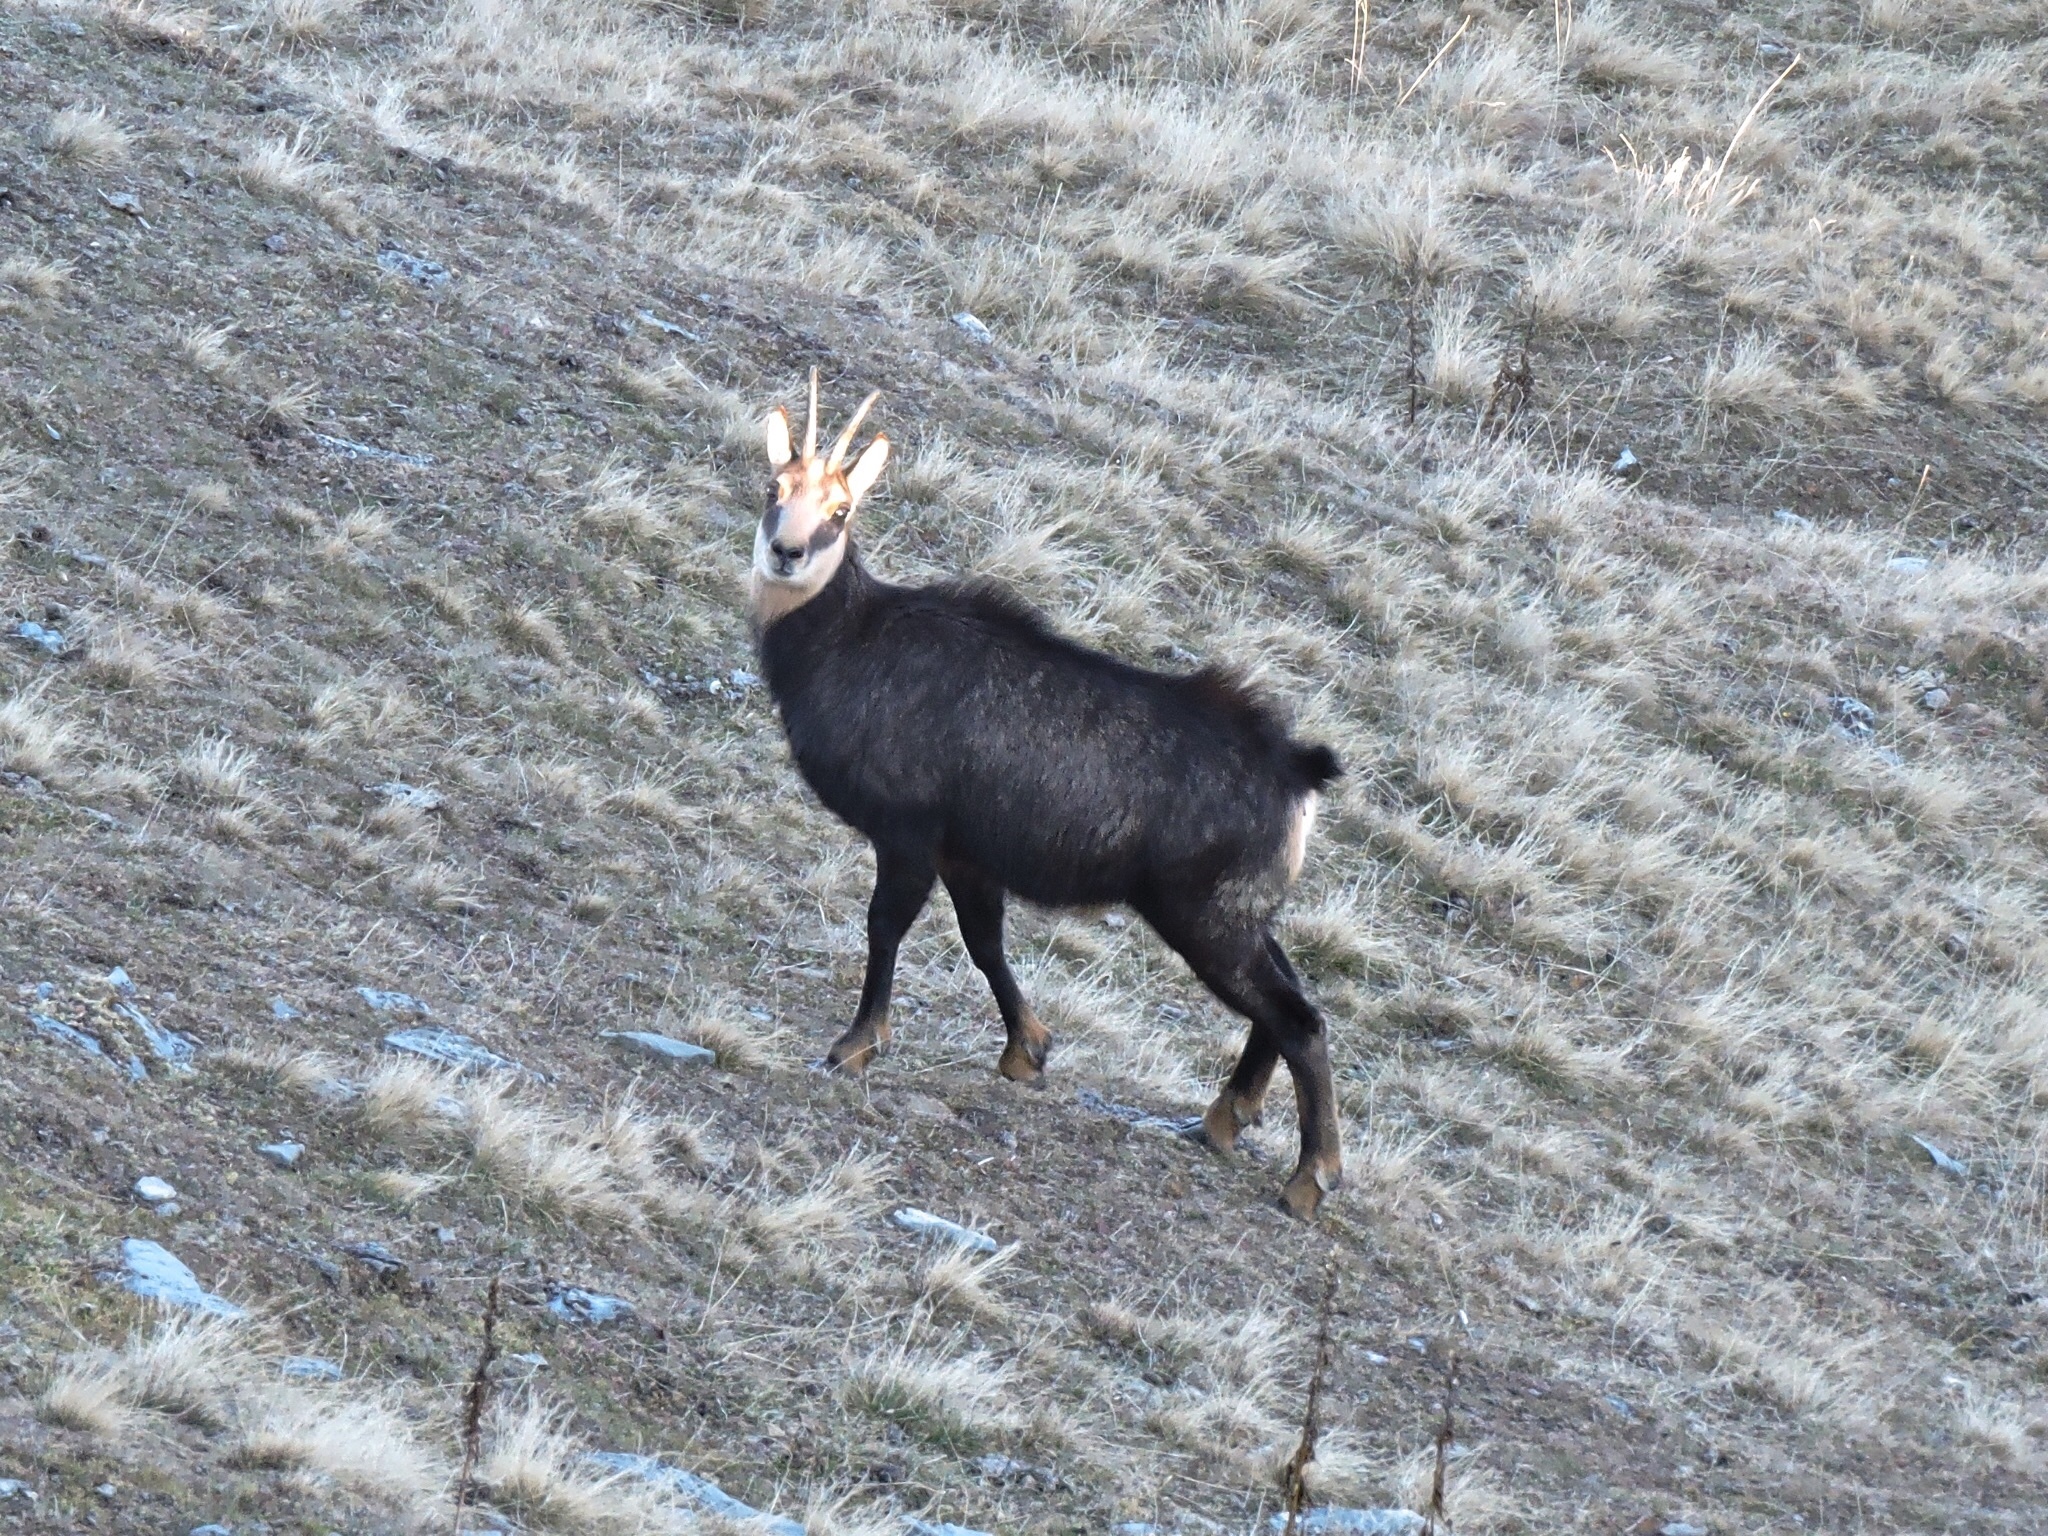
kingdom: Animalia
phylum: Chordata
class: Mammalia
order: Artiodactyla
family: Bovidae
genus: Rupicapra
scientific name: Rupicapra rupicapra
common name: Chamois
